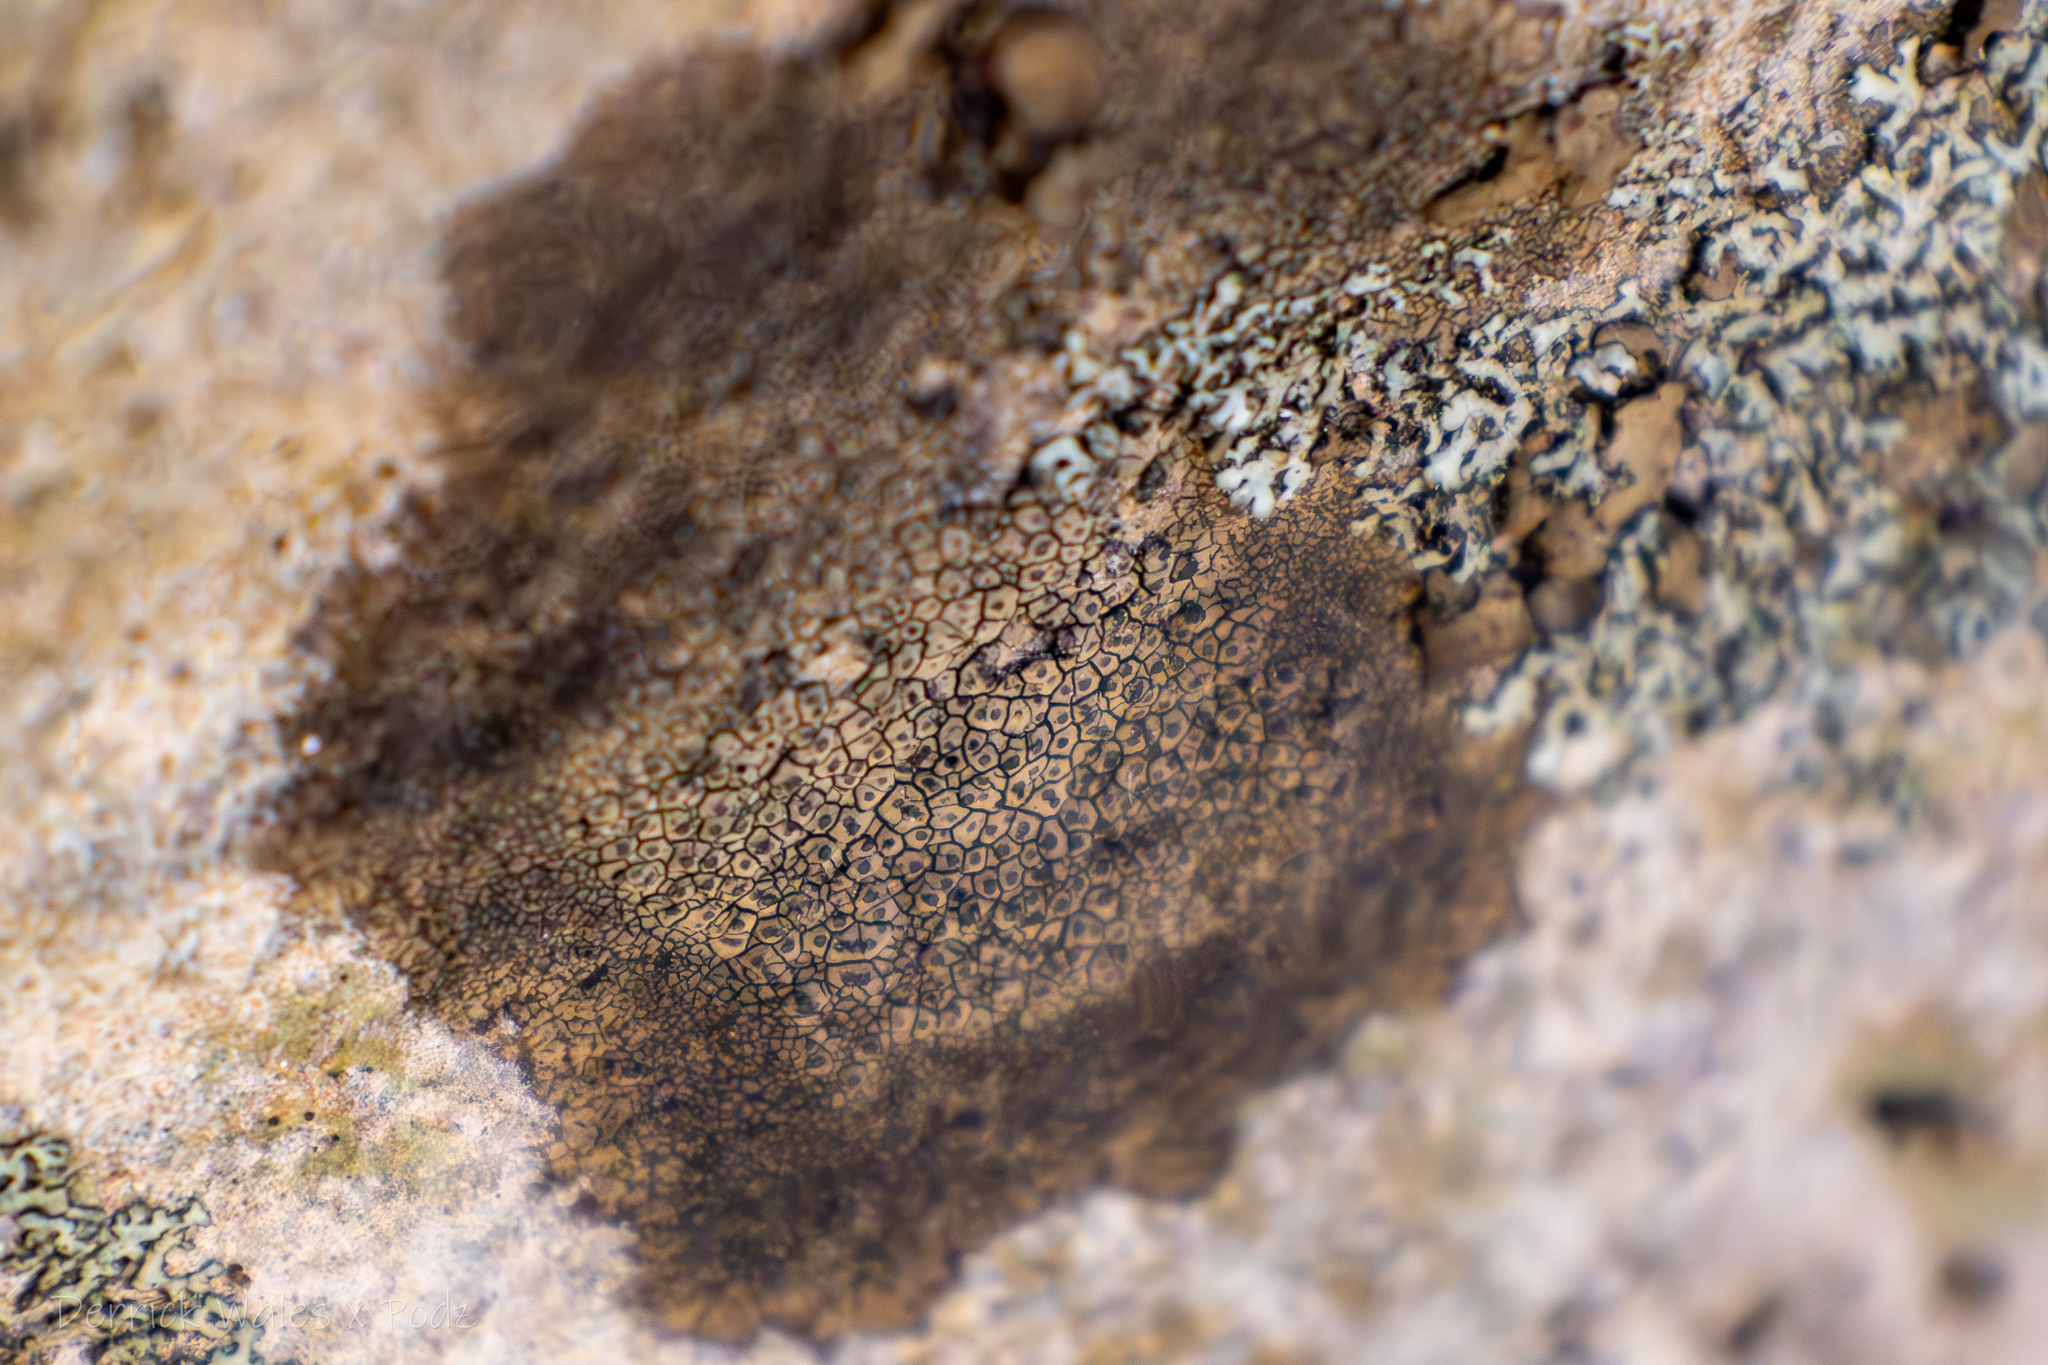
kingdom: Fungi
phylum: Ascomycota
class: Eurotiomycetes
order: Verrucariales
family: Verrucariaceae
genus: Willeya
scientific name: Willeya diffractella
